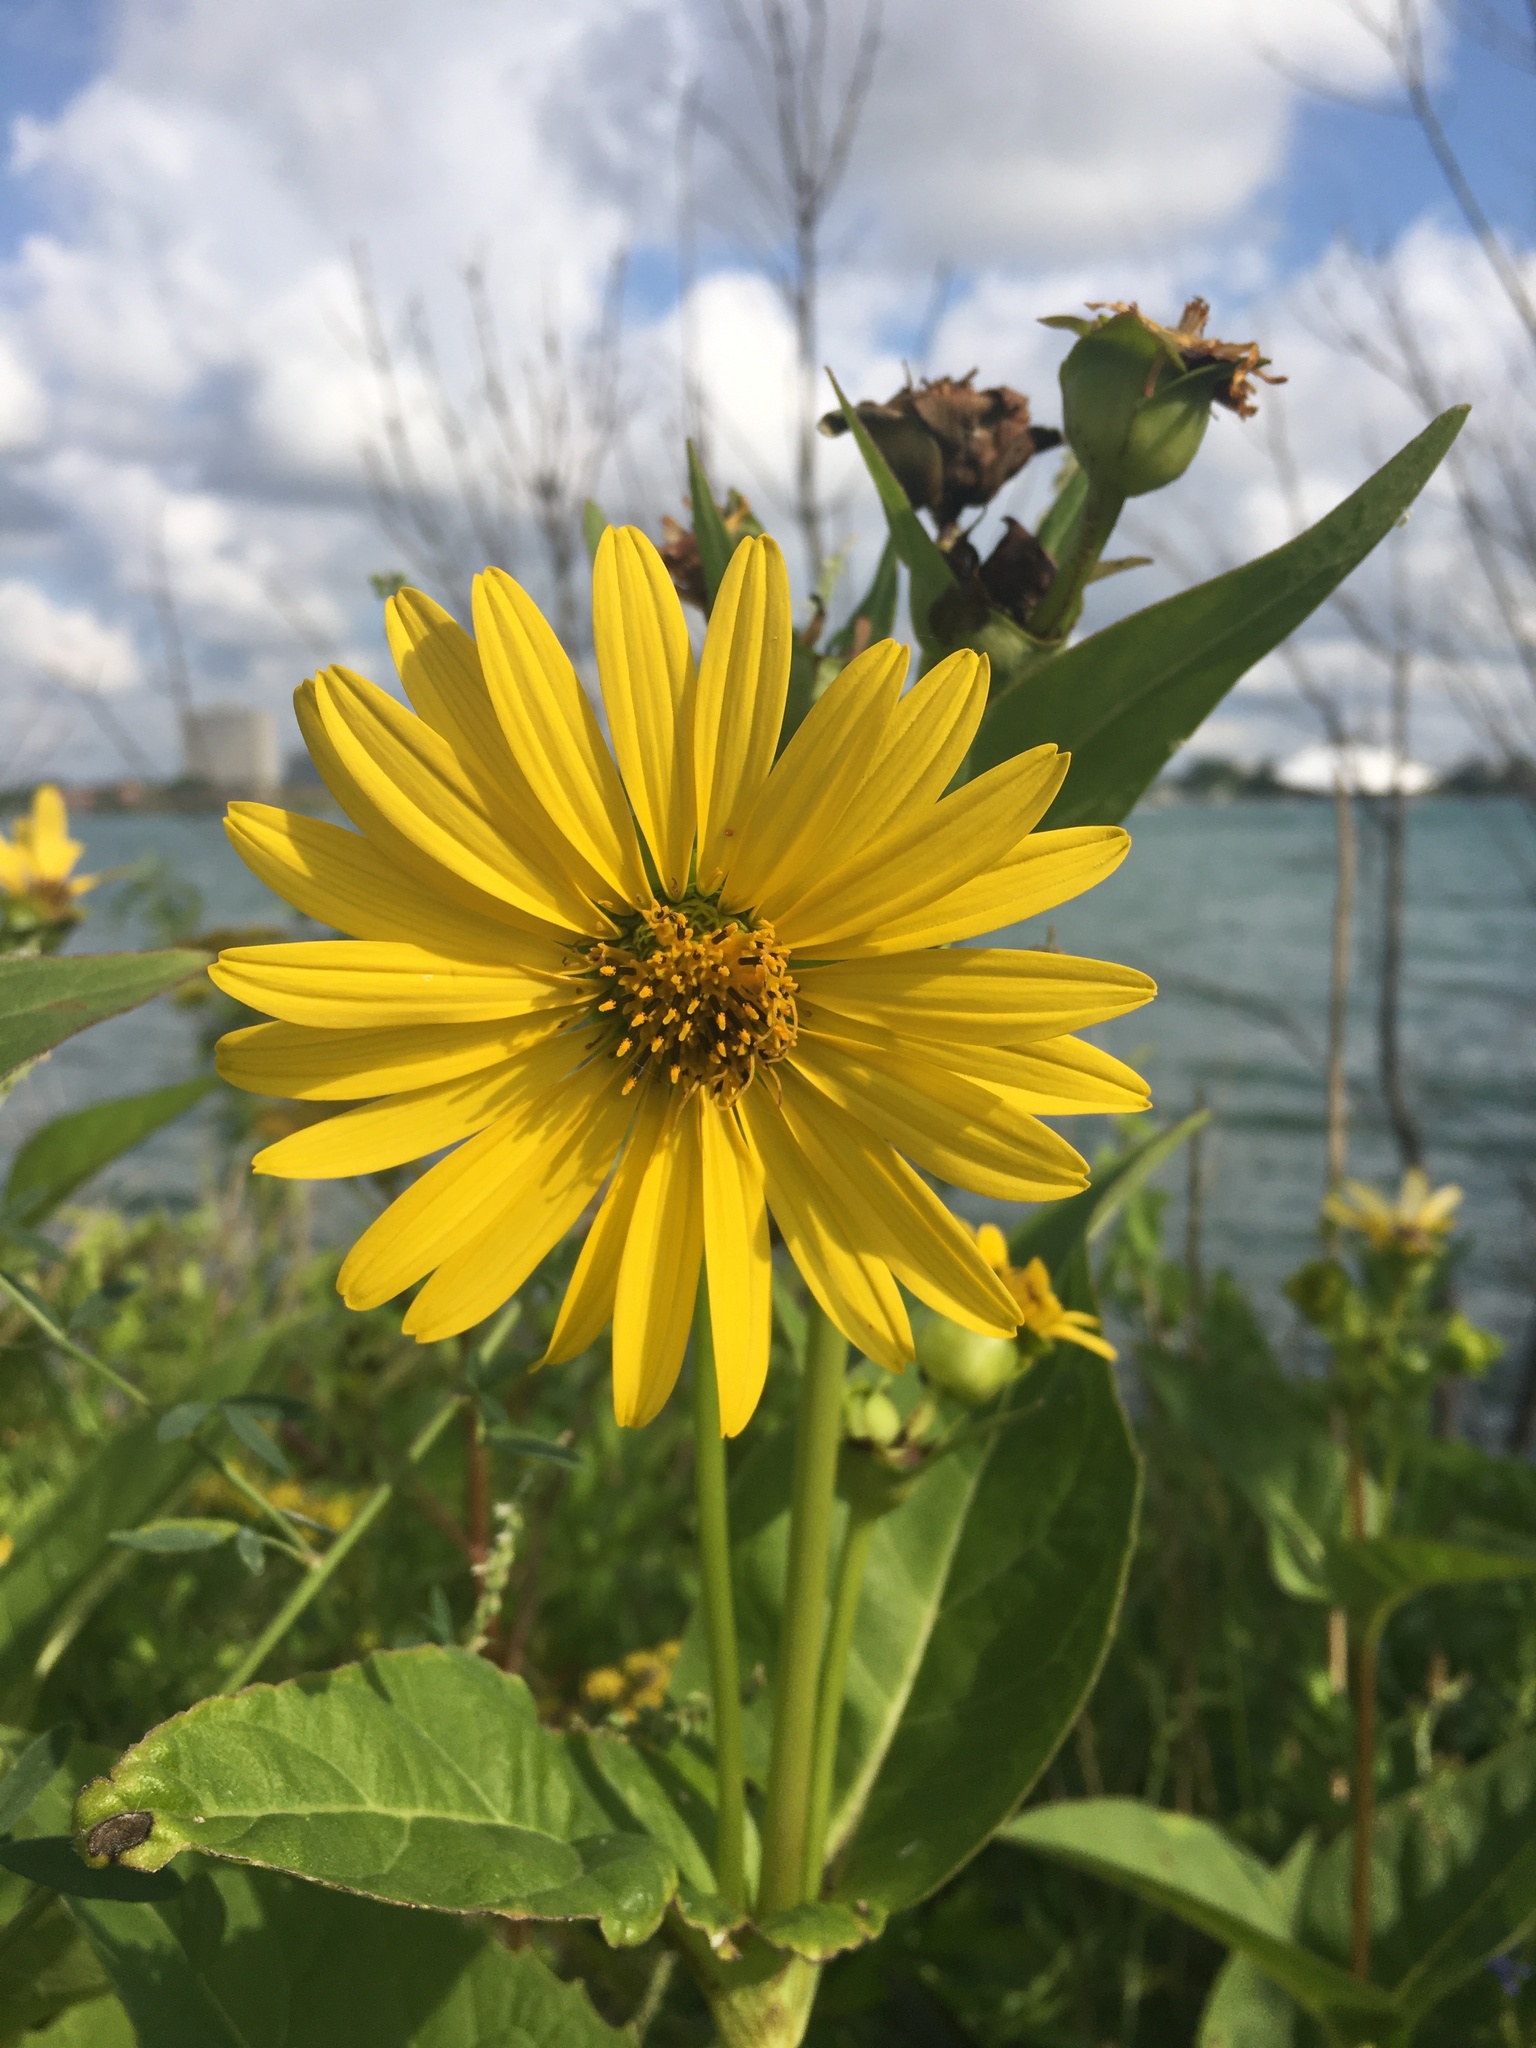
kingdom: Plantae
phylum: Tracheophyta
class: Magnoliopsida
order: Asterales
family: Asteraceae
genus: Silphium
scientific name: Silphium integrifolium
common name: Whole-leaf rosinweed
